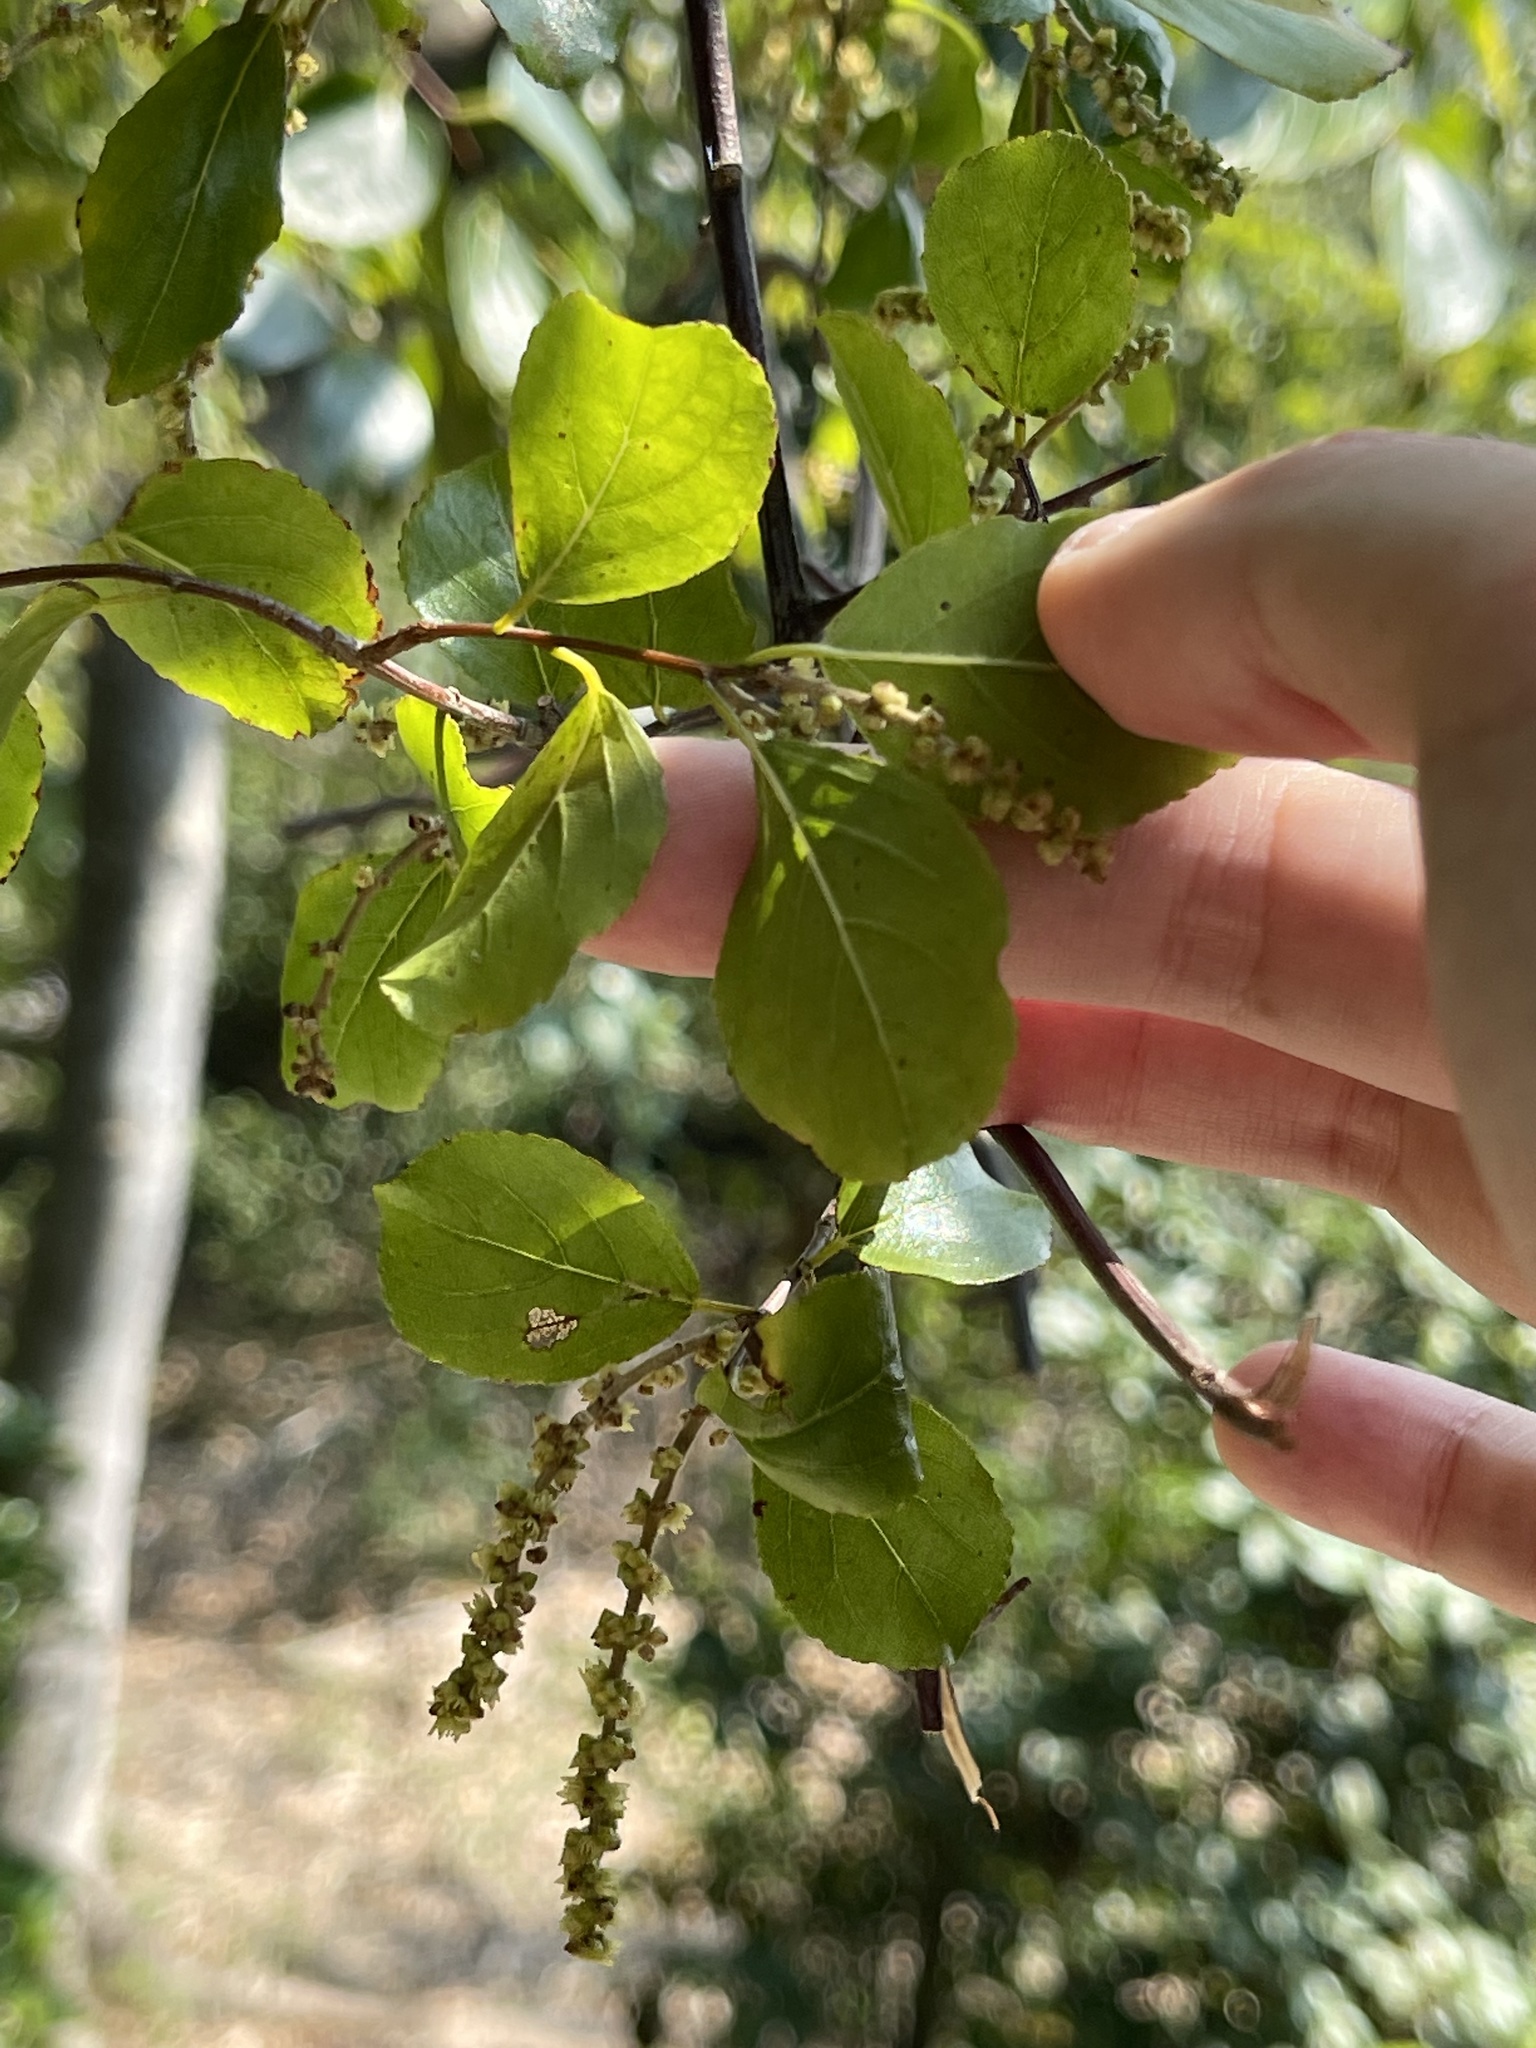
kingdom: Plantae
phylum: Tracheophyta
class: Magnoliopsida
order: Rosales
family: Rhamnaceae
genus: Sageretia
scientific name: Sageretia thea
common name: Pauper's-tea
